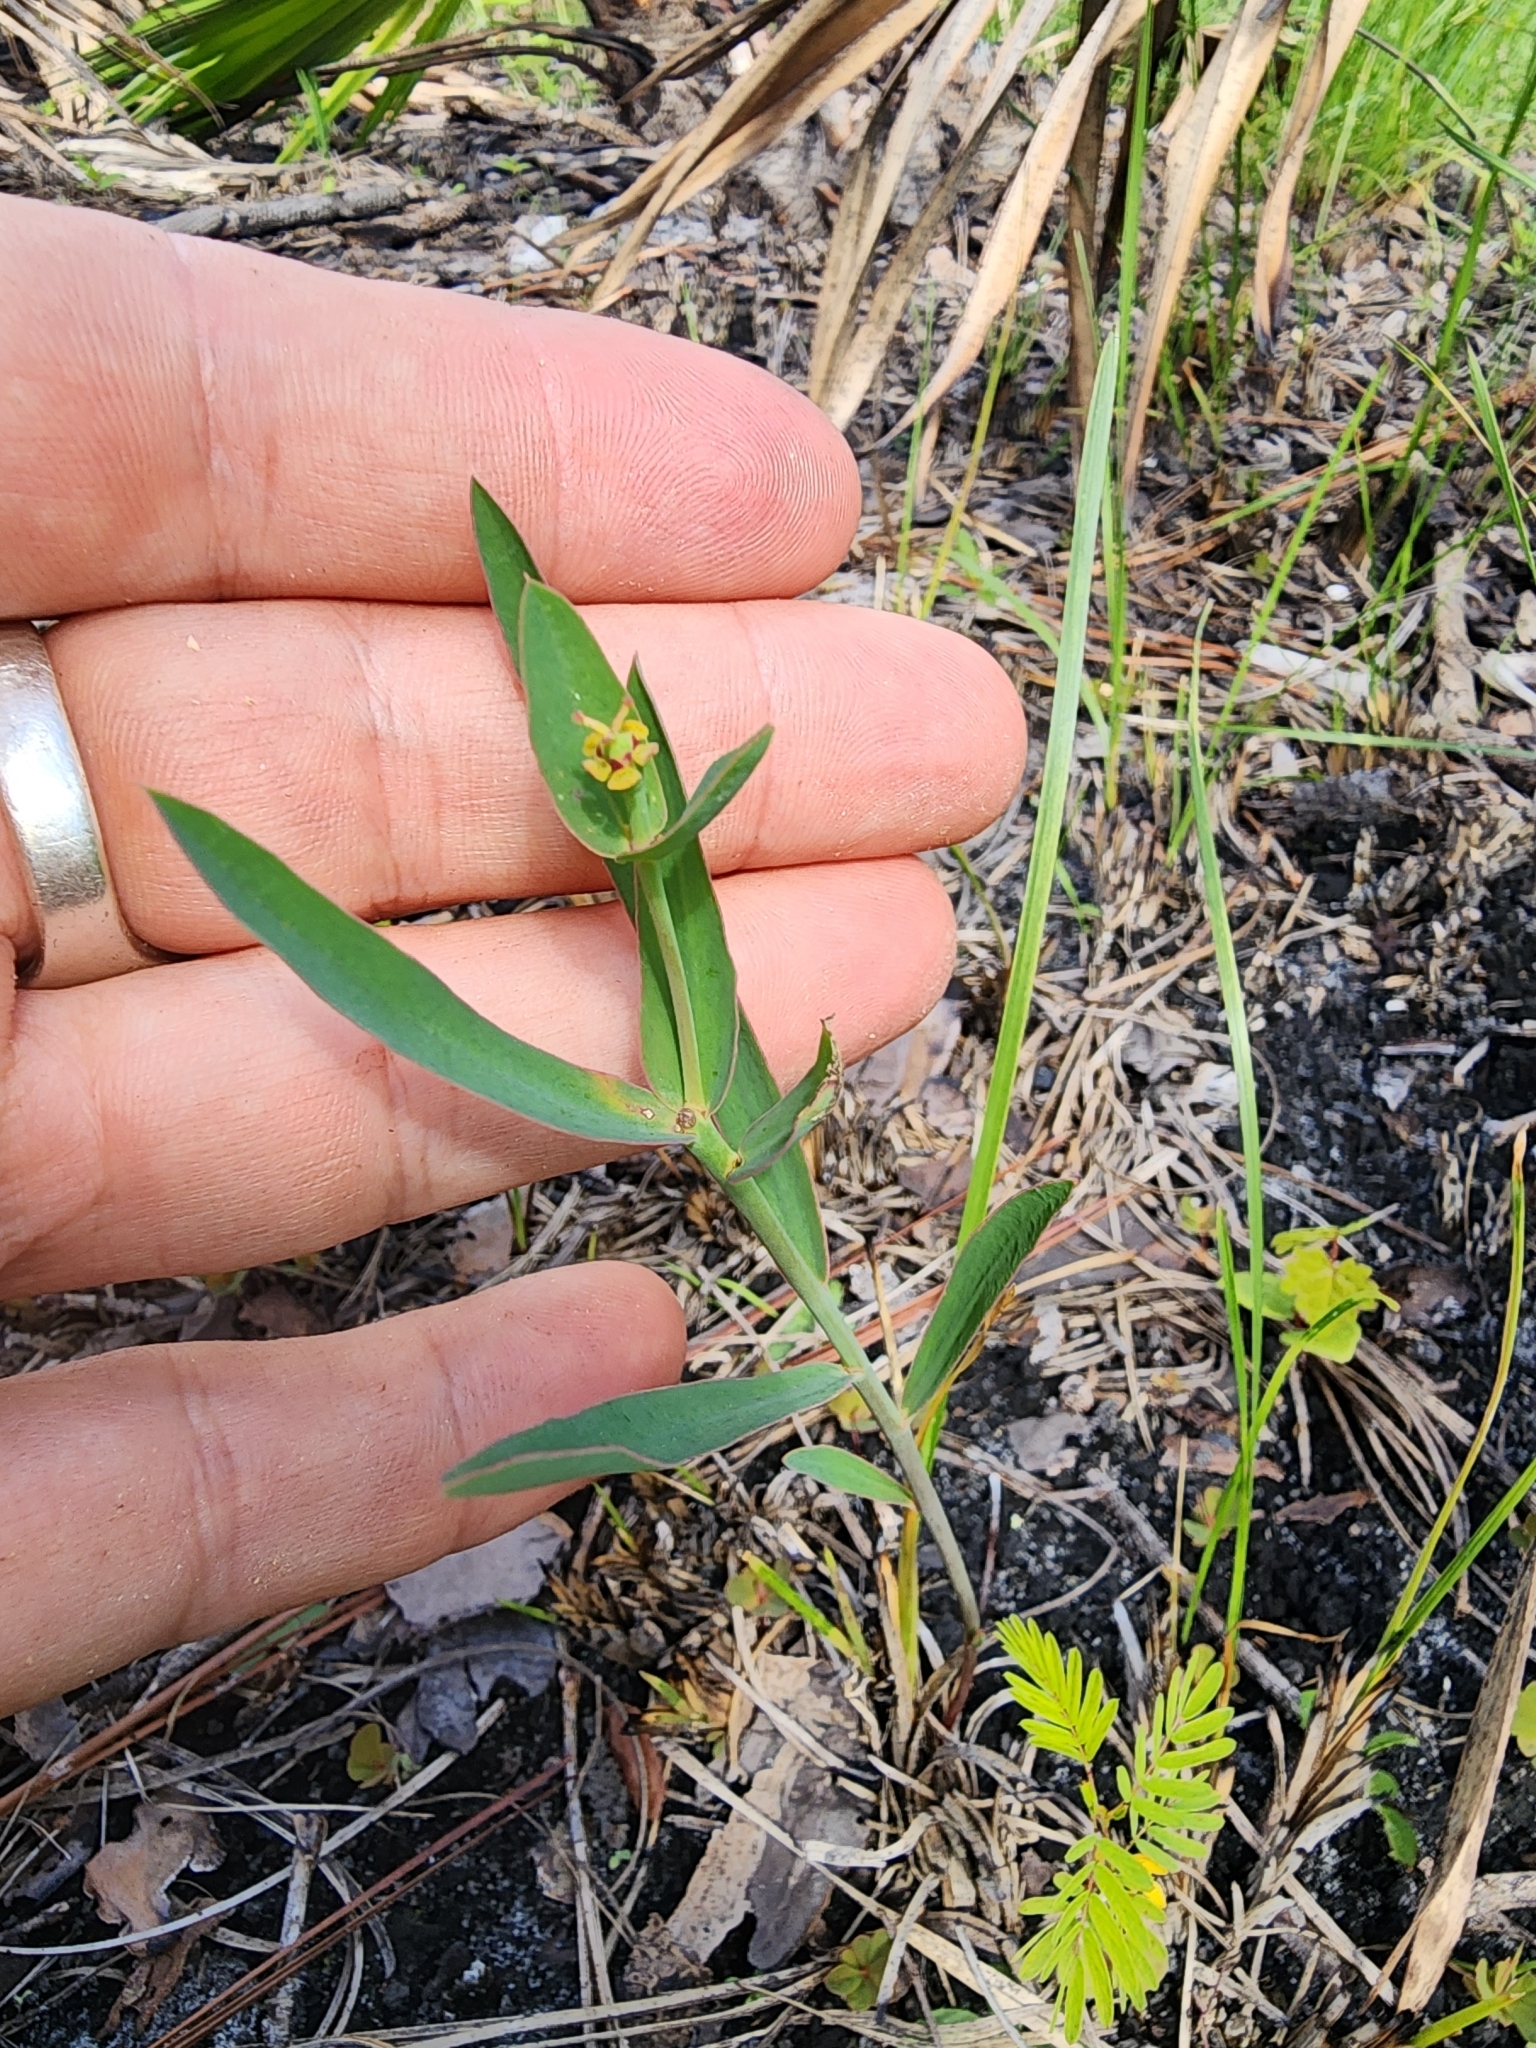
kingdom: Plantae
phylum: Tracheophyta
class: Magnoliopsida
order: Malpighiales
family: Euphorbiaceae
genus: Euphorbia
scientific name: Euphorbia inundata
